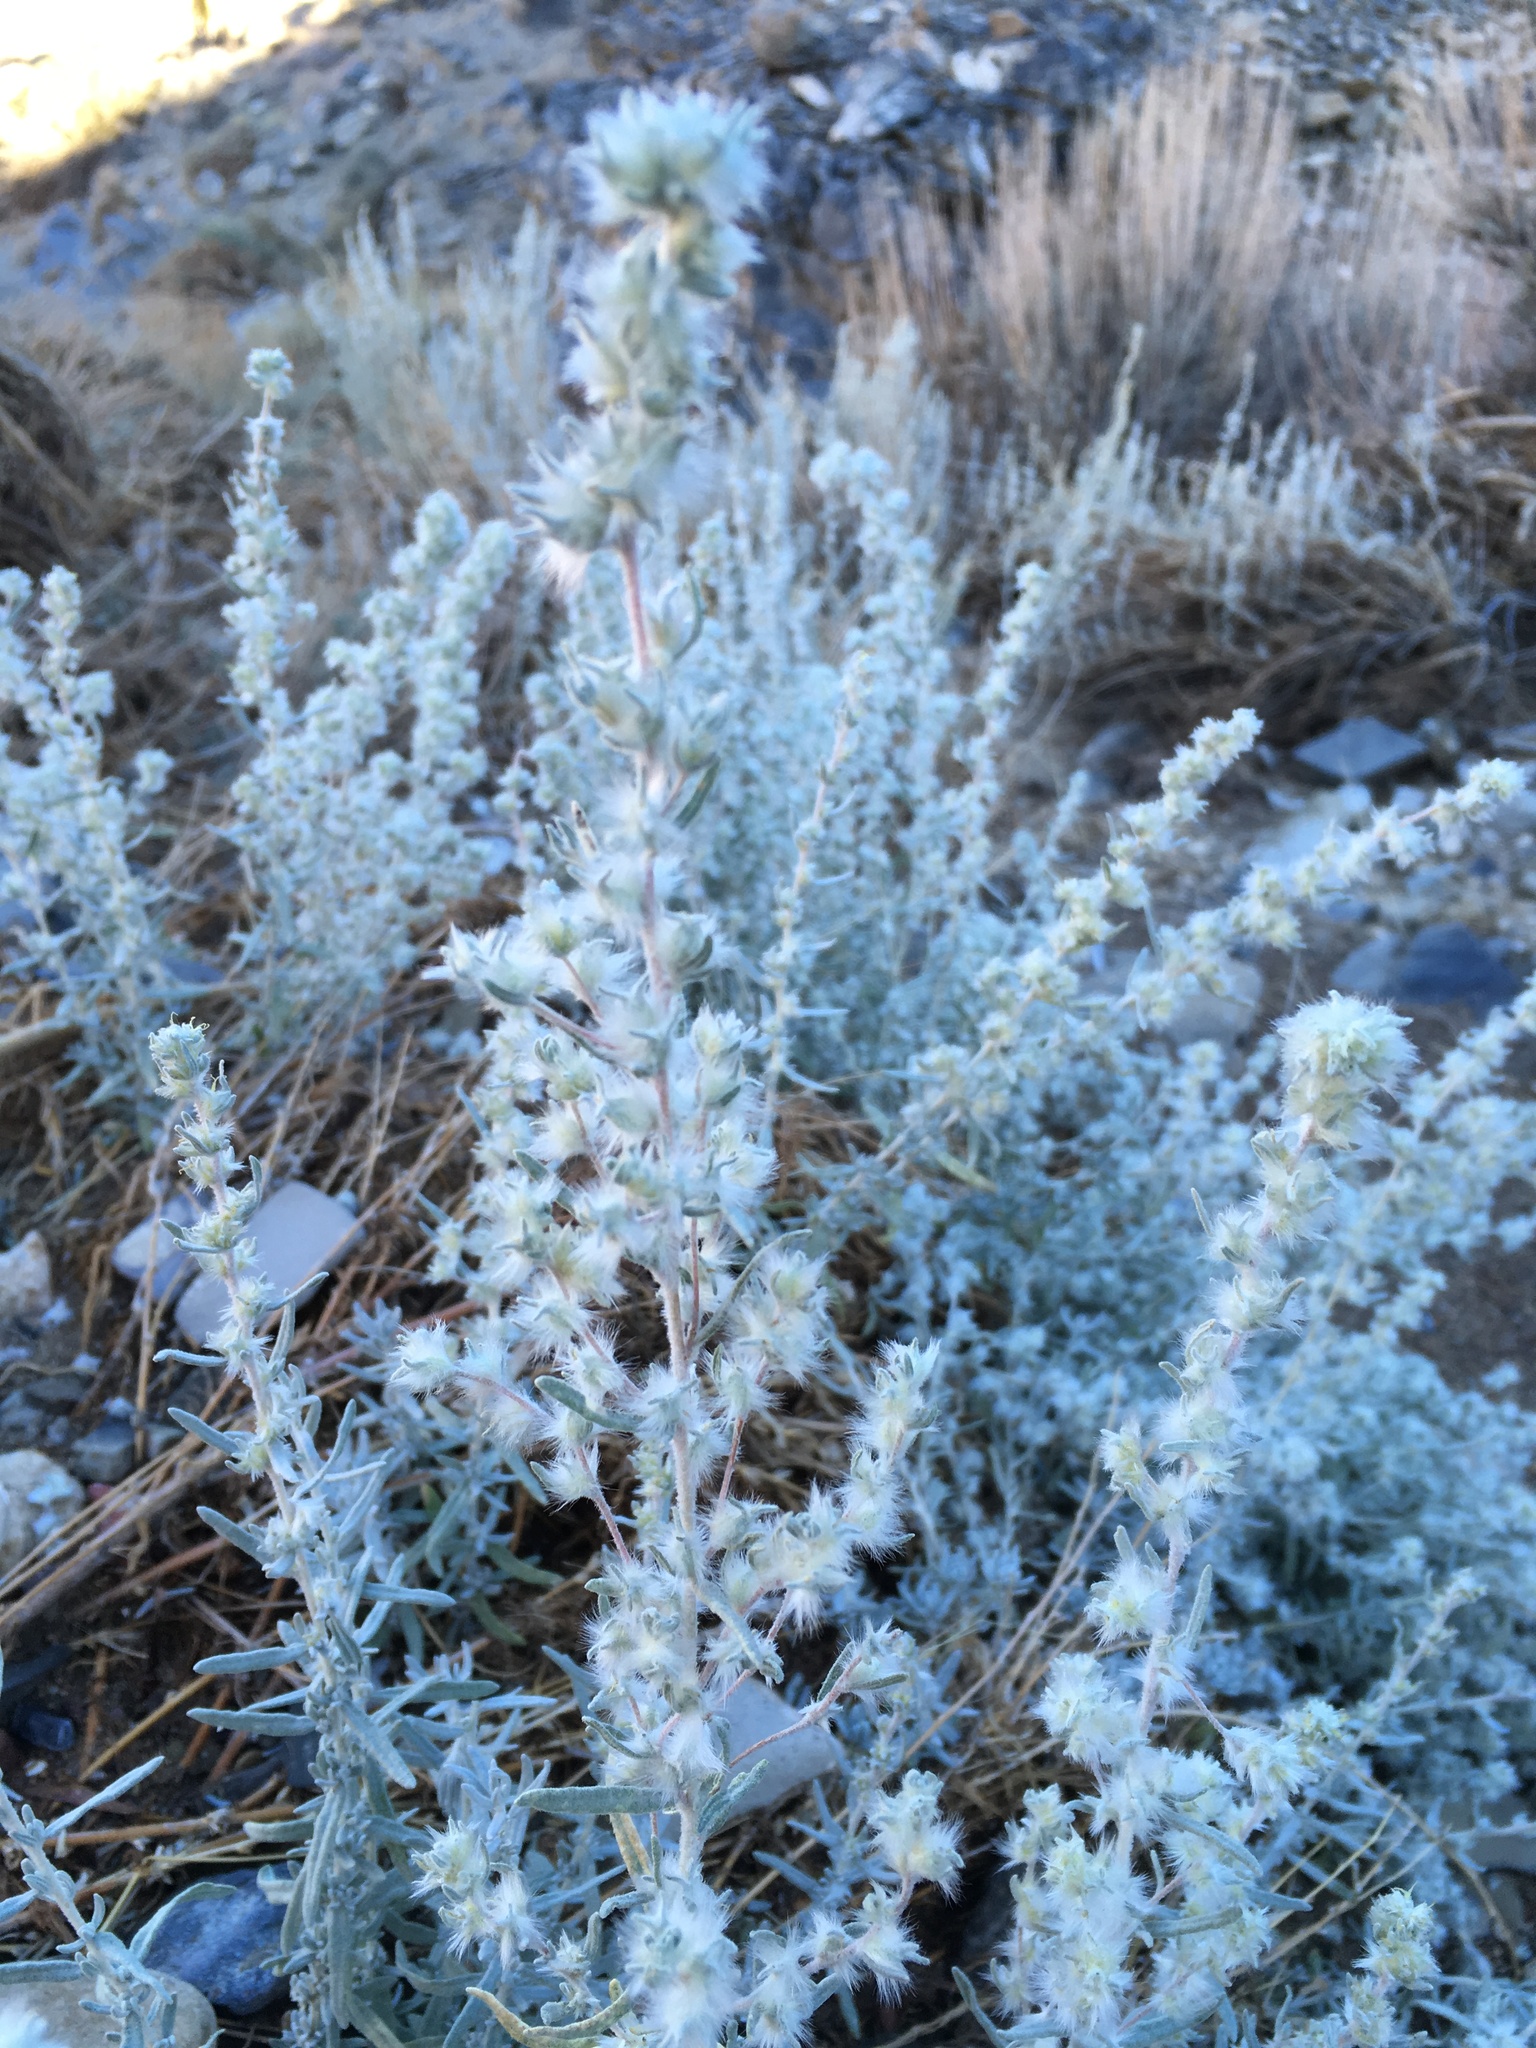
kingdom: Plantae
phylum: Tracheophyta
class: Magnoliopsida
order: Caryophyllales
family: Amaranthaceae
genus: Krascheninnikovia
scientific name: Krascheninnikovia lanata
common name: Winterfat
